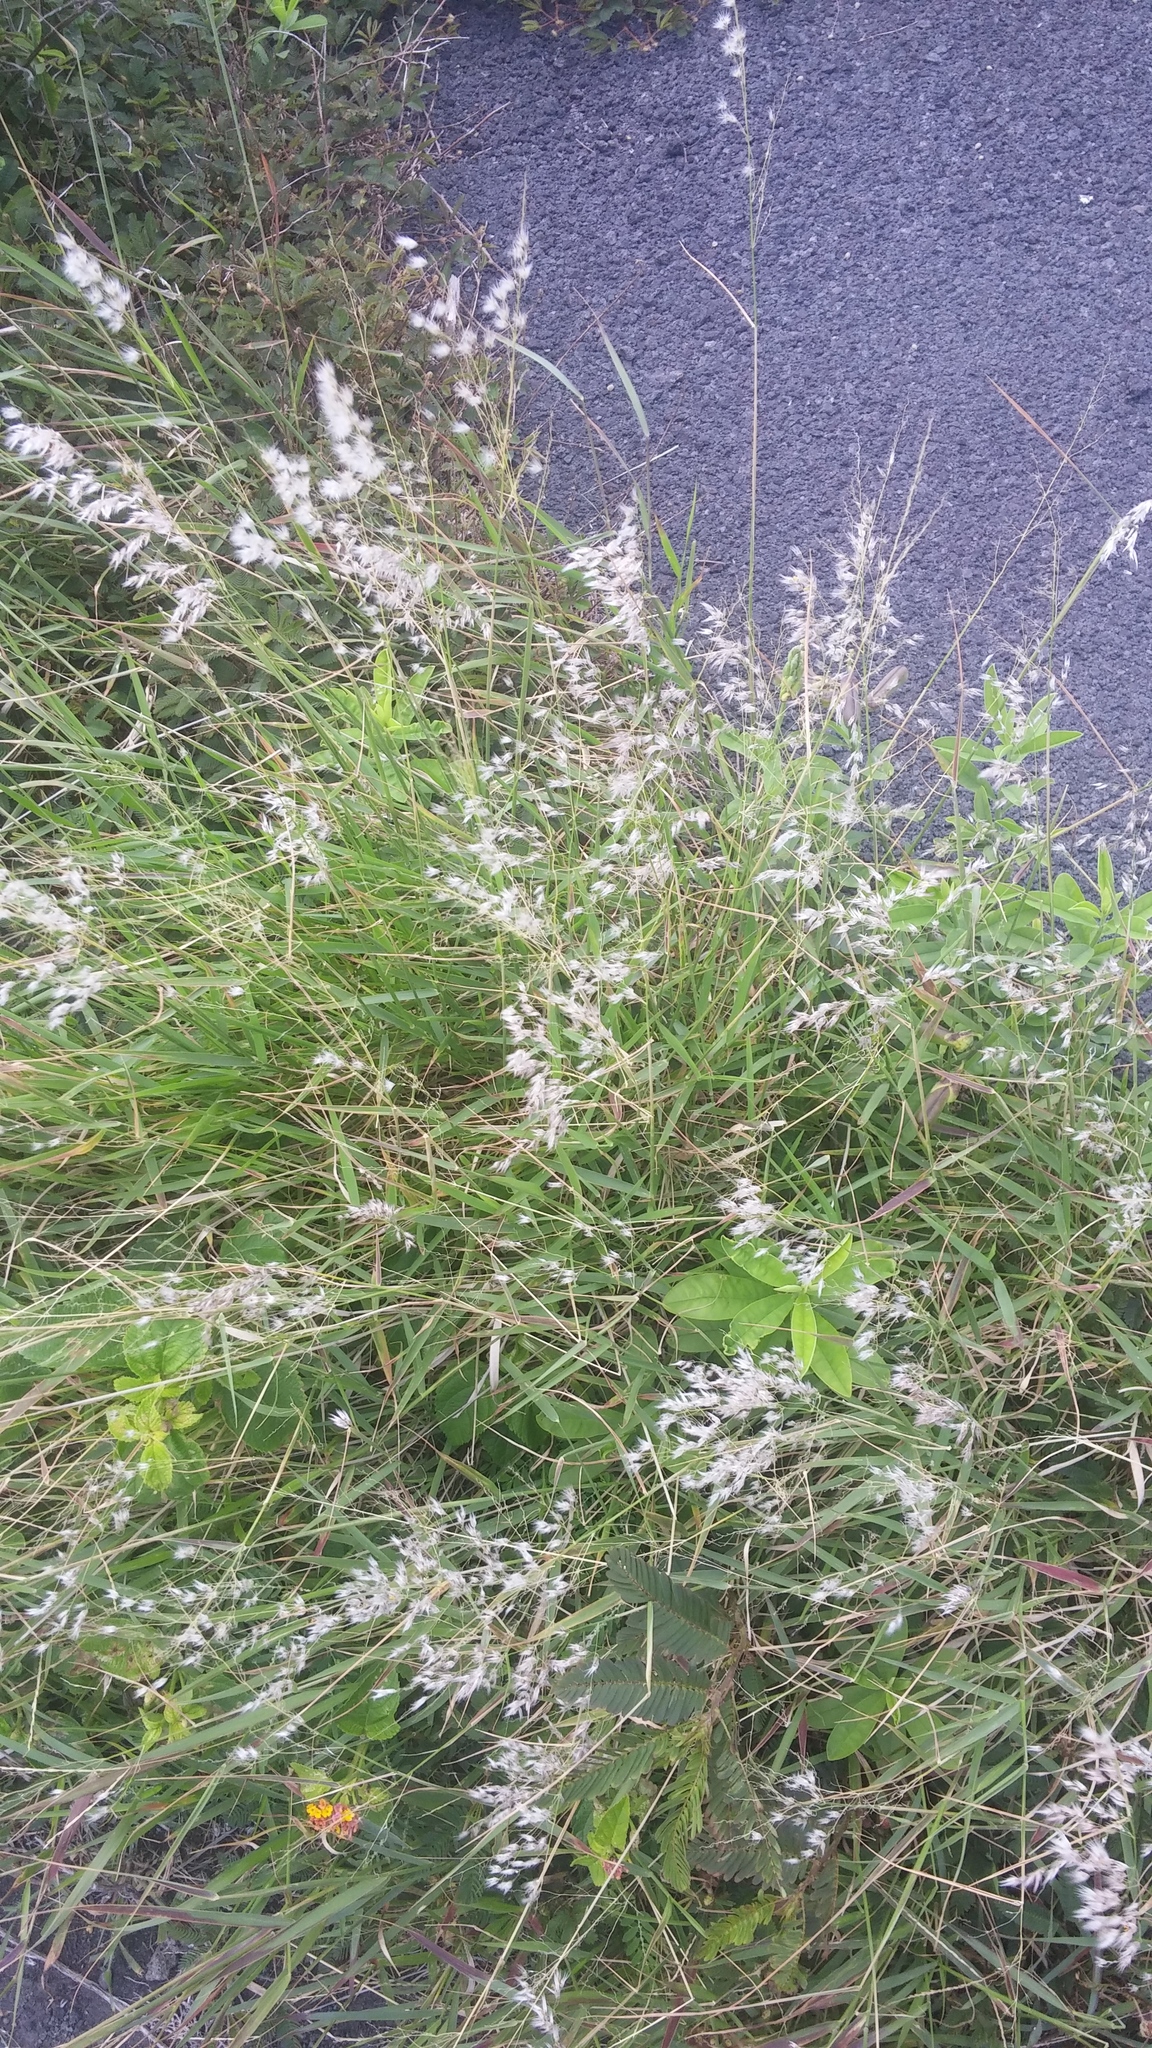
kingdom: Plantae
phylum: Tracheophyta
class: Liliopsida
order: Poales
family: Poaceae
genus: Melinis
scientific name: Melinis repens
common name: Rose natal grass
